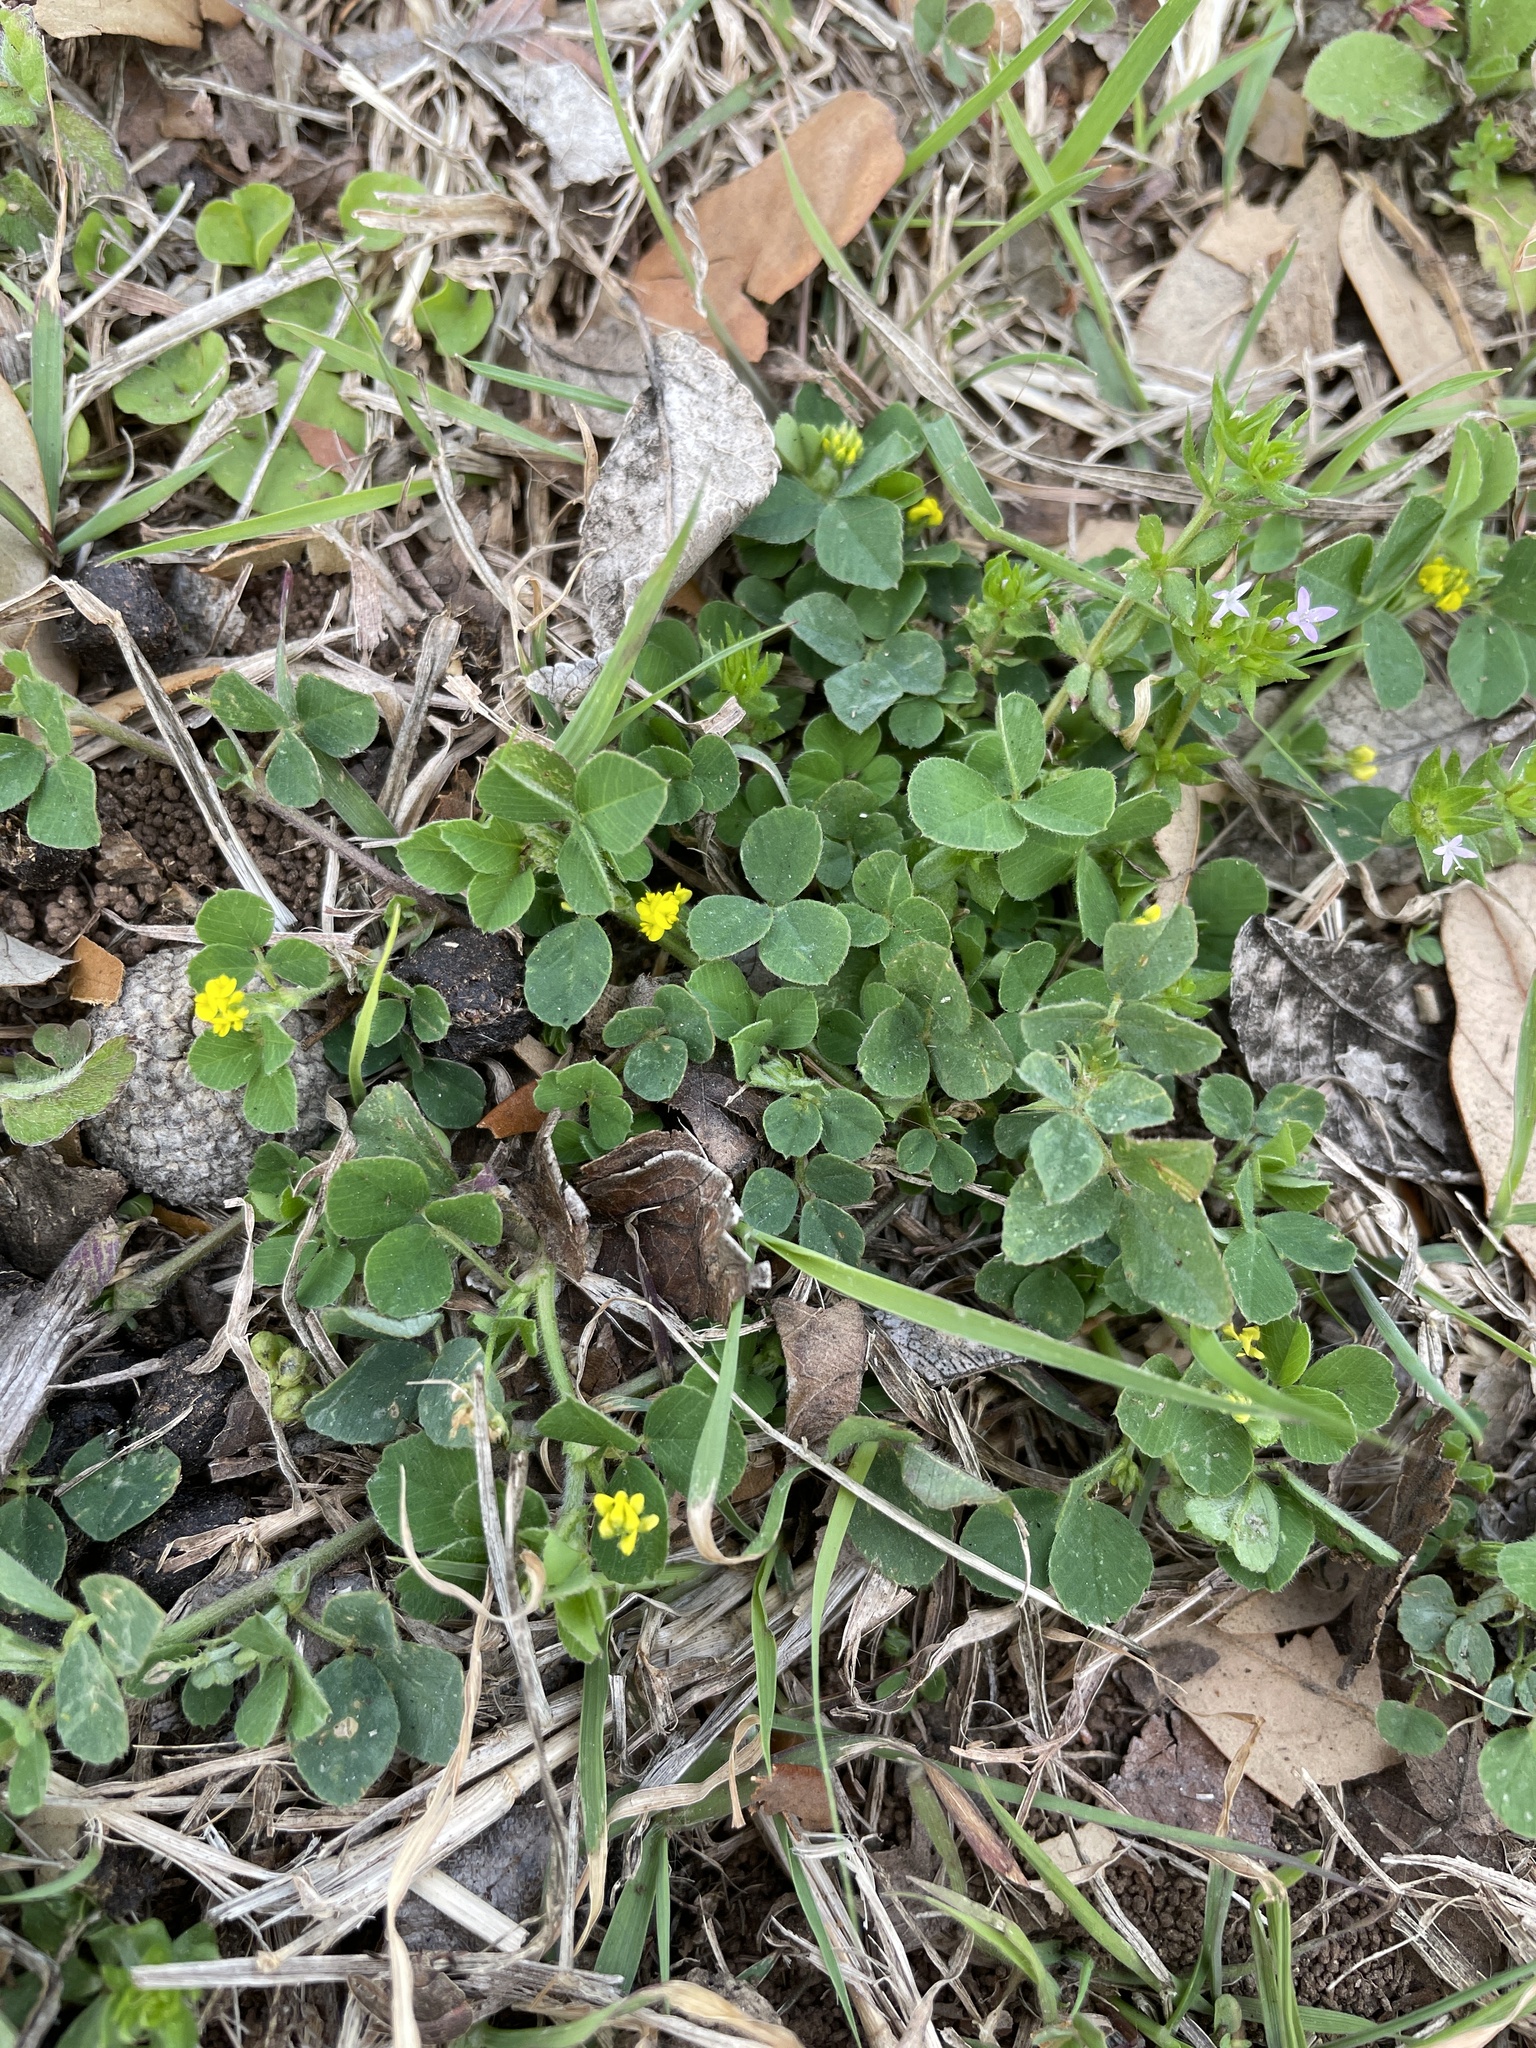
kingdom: Plantae
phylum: Tracheophyta
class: Magnoliopsida
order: Fabales
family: Fabaceae
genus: Medicago
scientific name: Medicago lupulina
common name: Black medick
